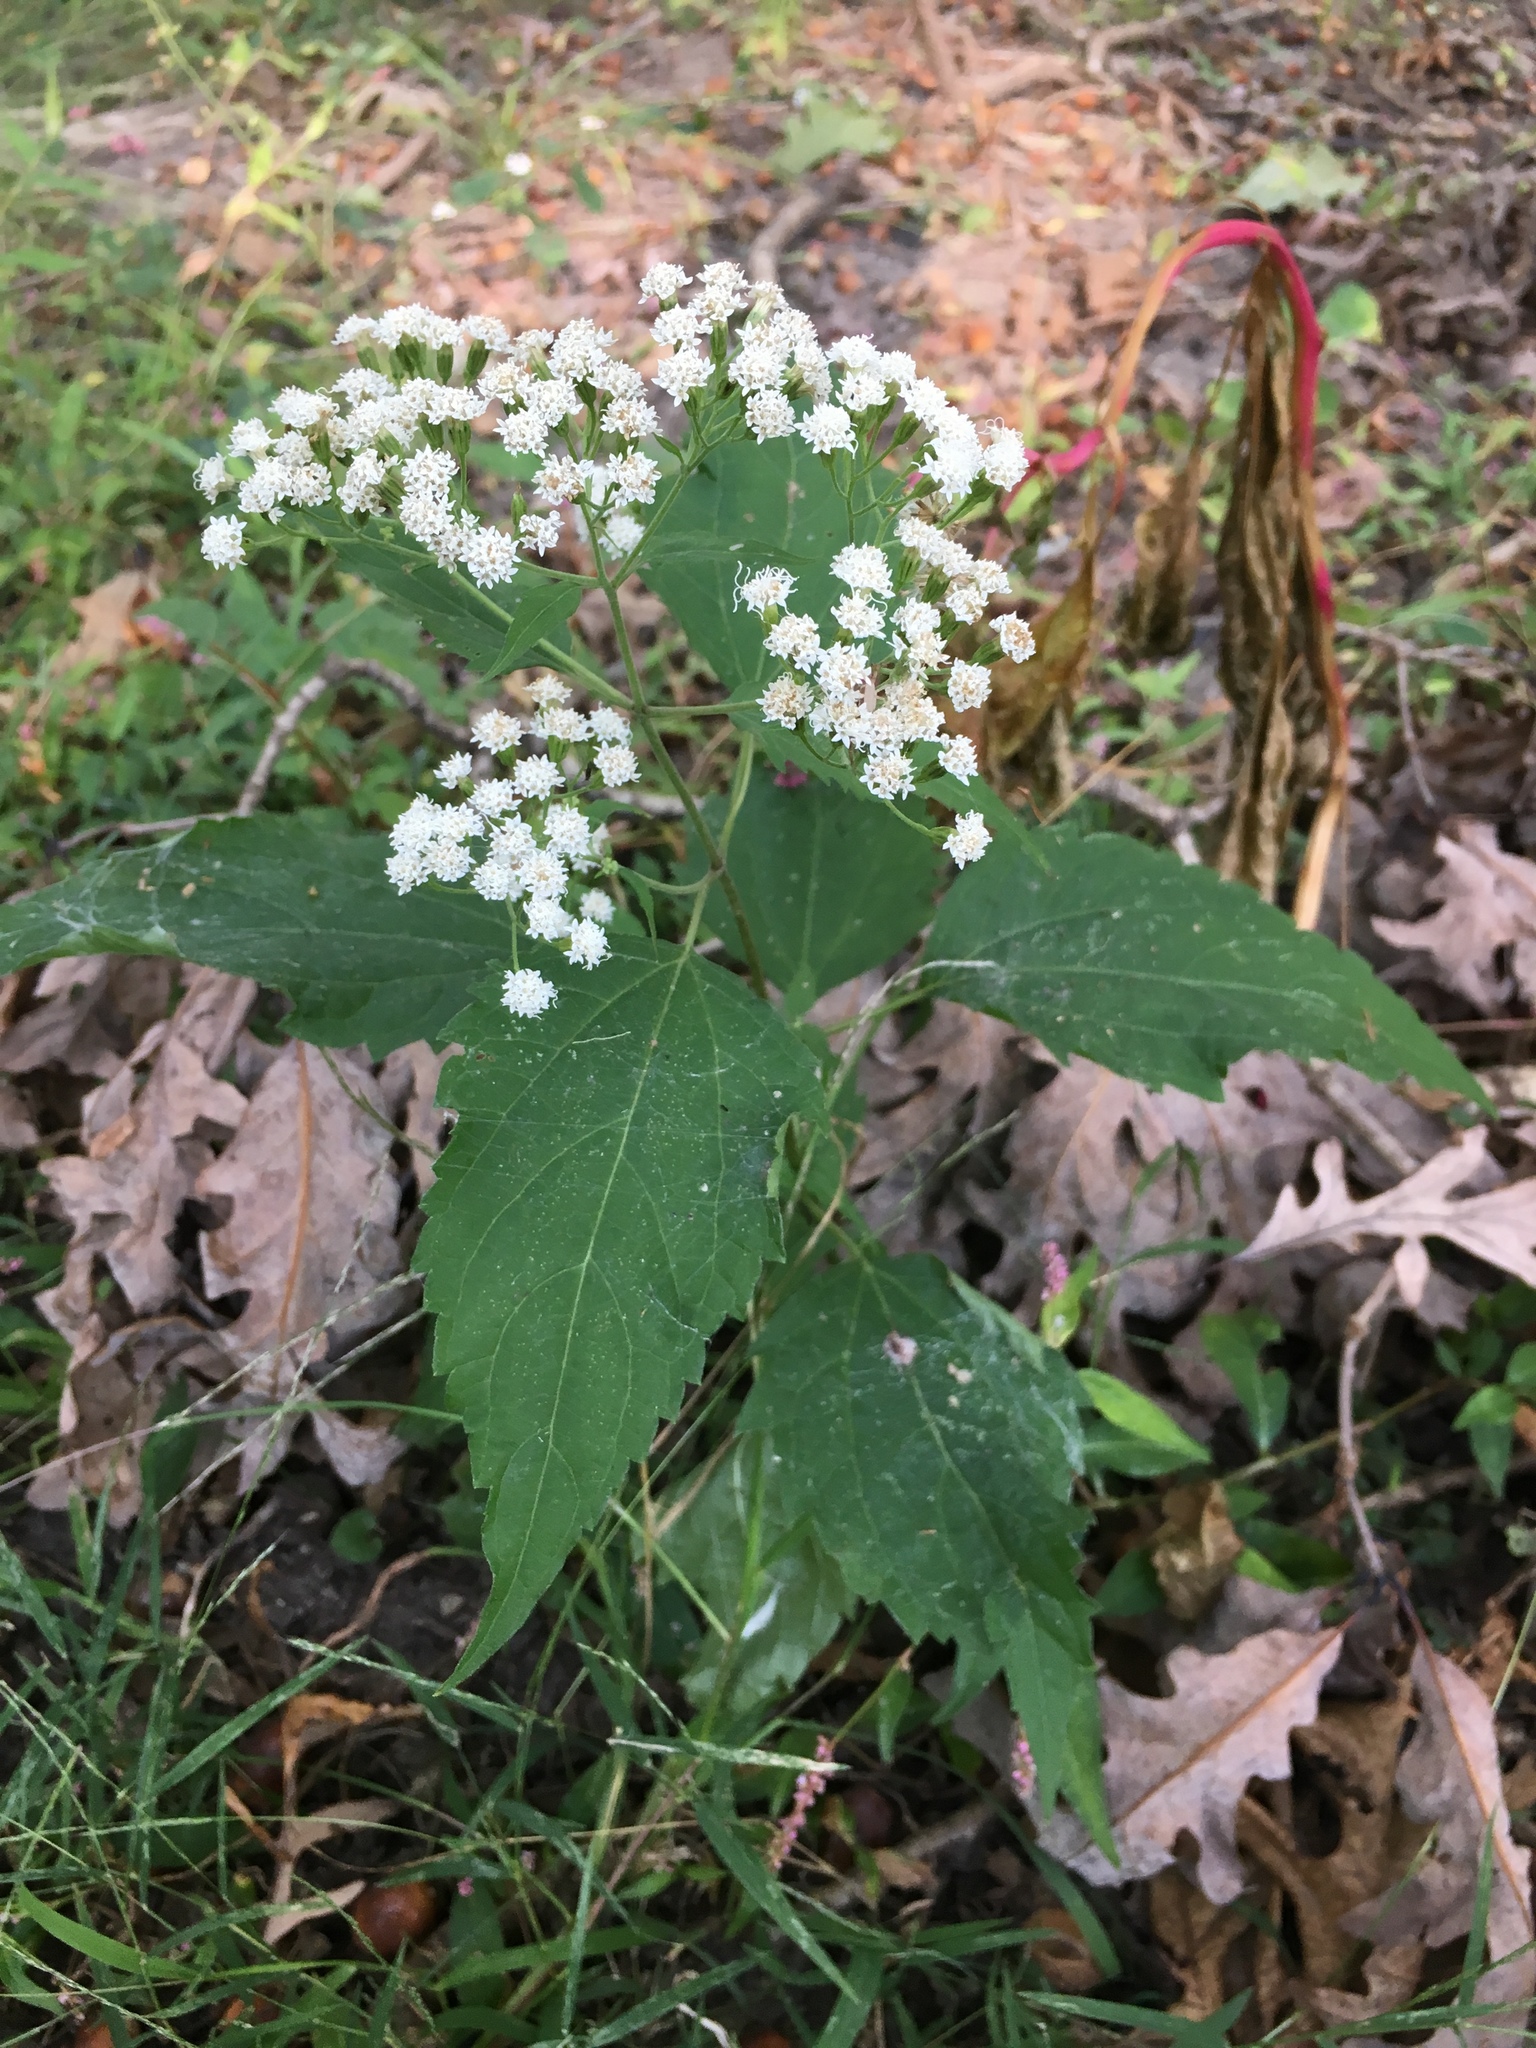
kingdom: Plantae
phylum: Tracheophyta
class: Magnoliopsida
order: Asterales
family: Asteraceae
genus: Ageratina
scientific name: Ageratina altissima
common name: White snakeroot
